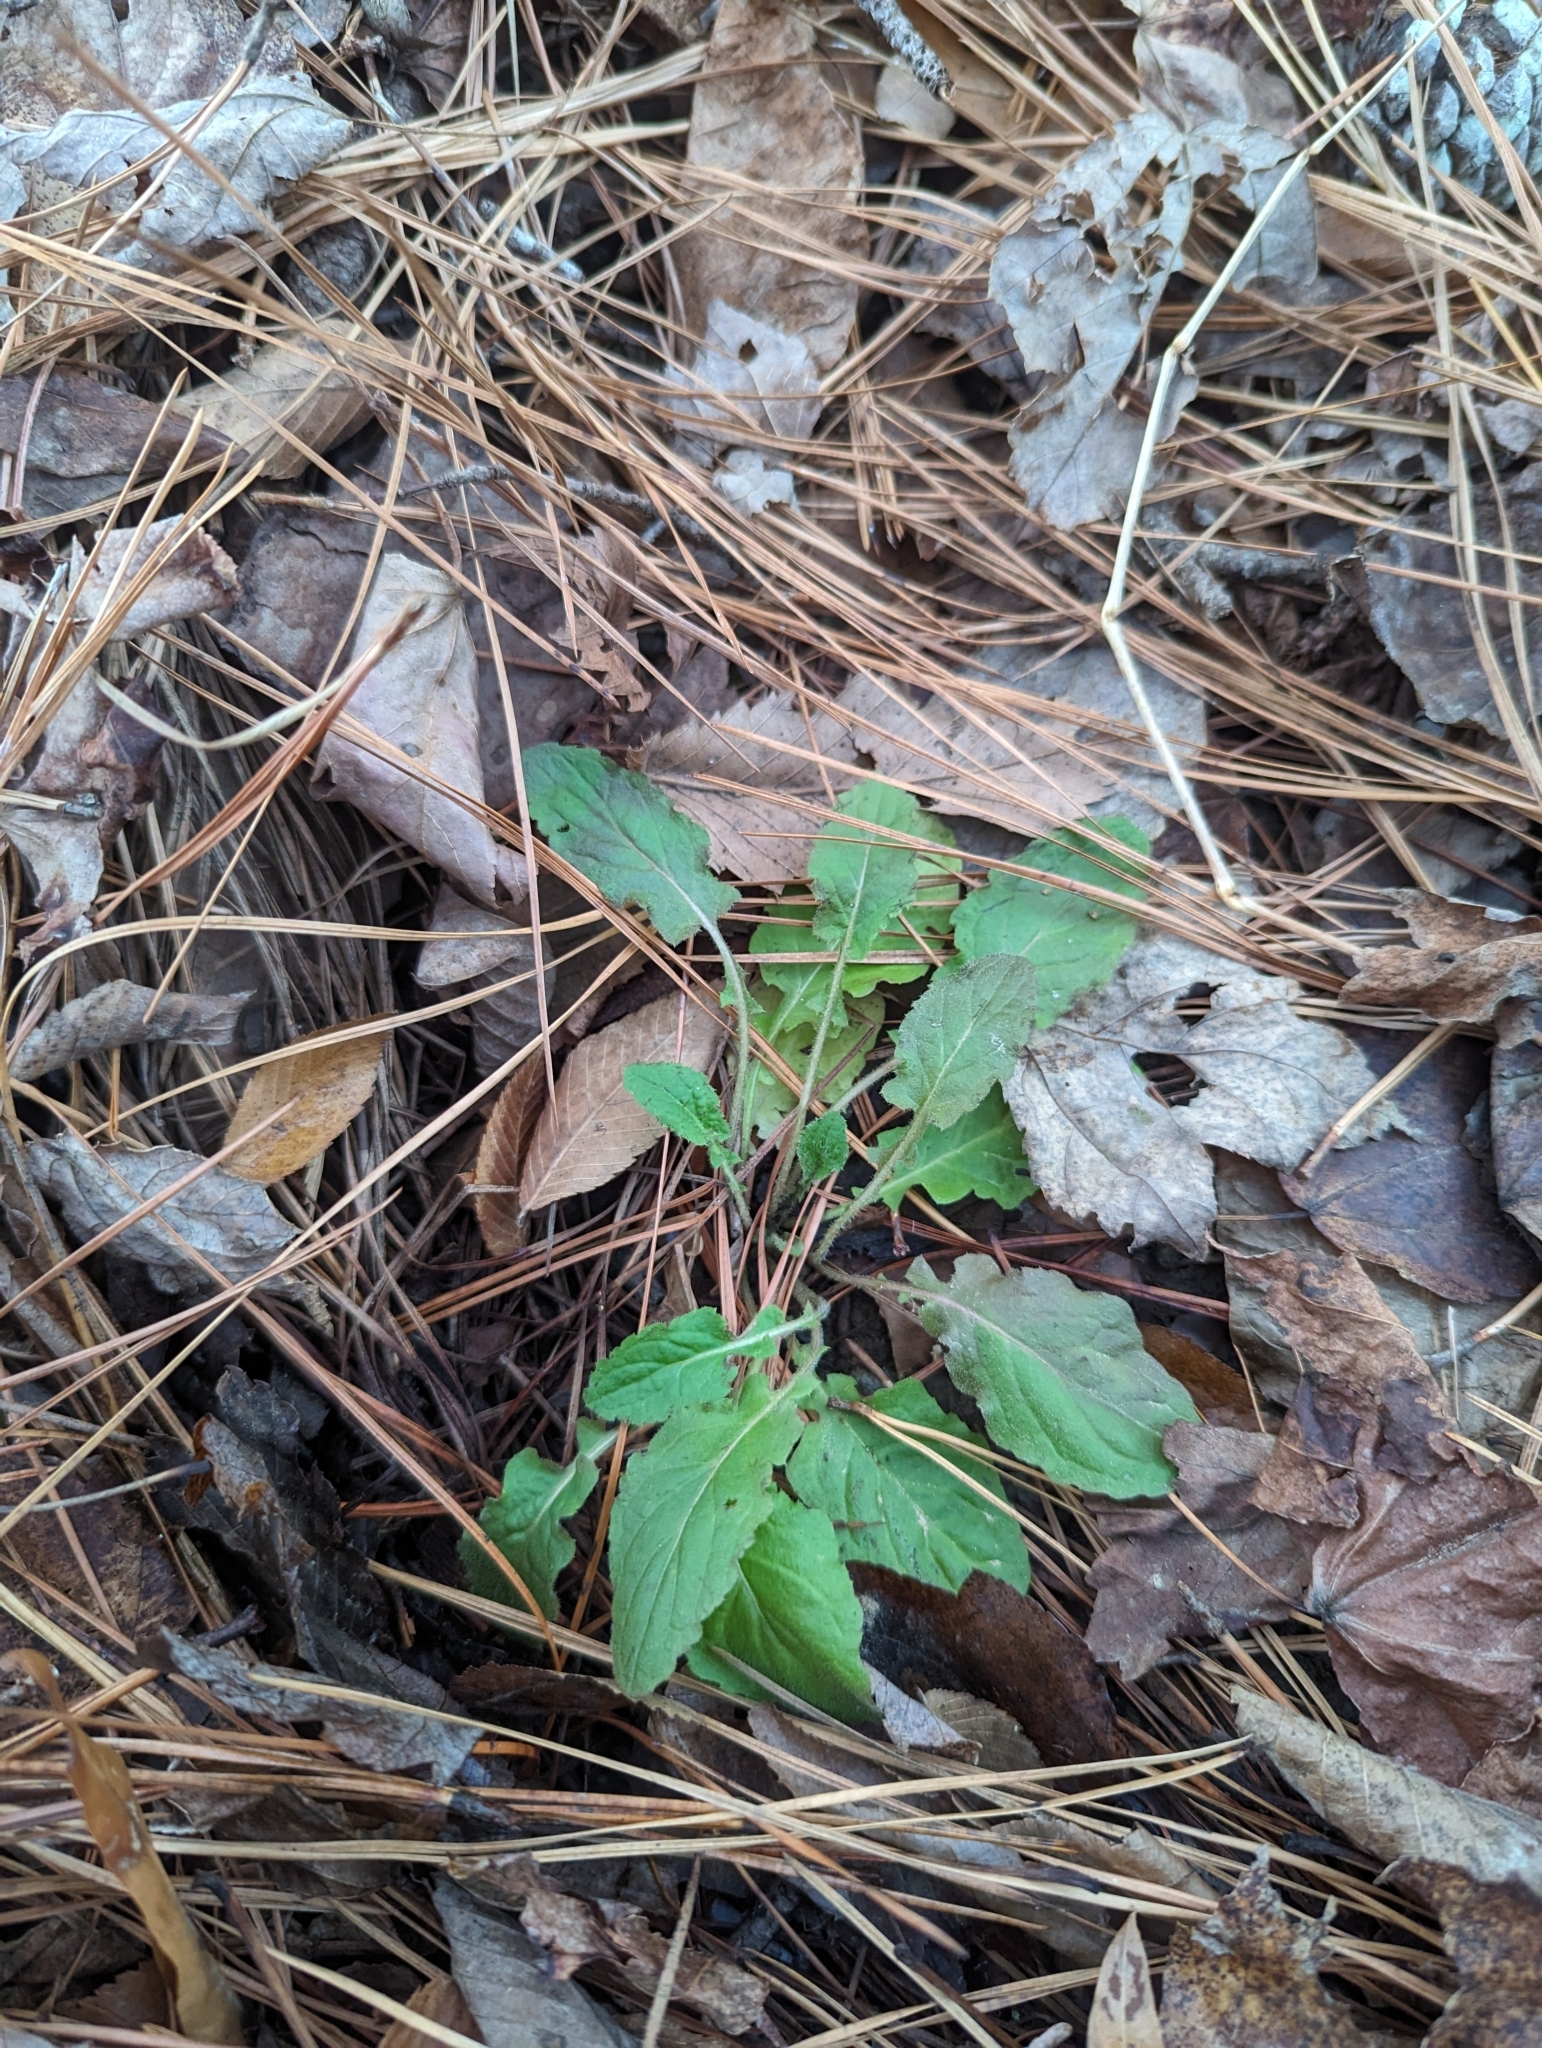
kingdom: Plantae
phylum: Tracheophyta
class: Magnoliopsida
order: Asterales
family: Asteraceae
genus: Youngia
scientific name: Youngia japonica
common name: Oriental false hawksbeard
